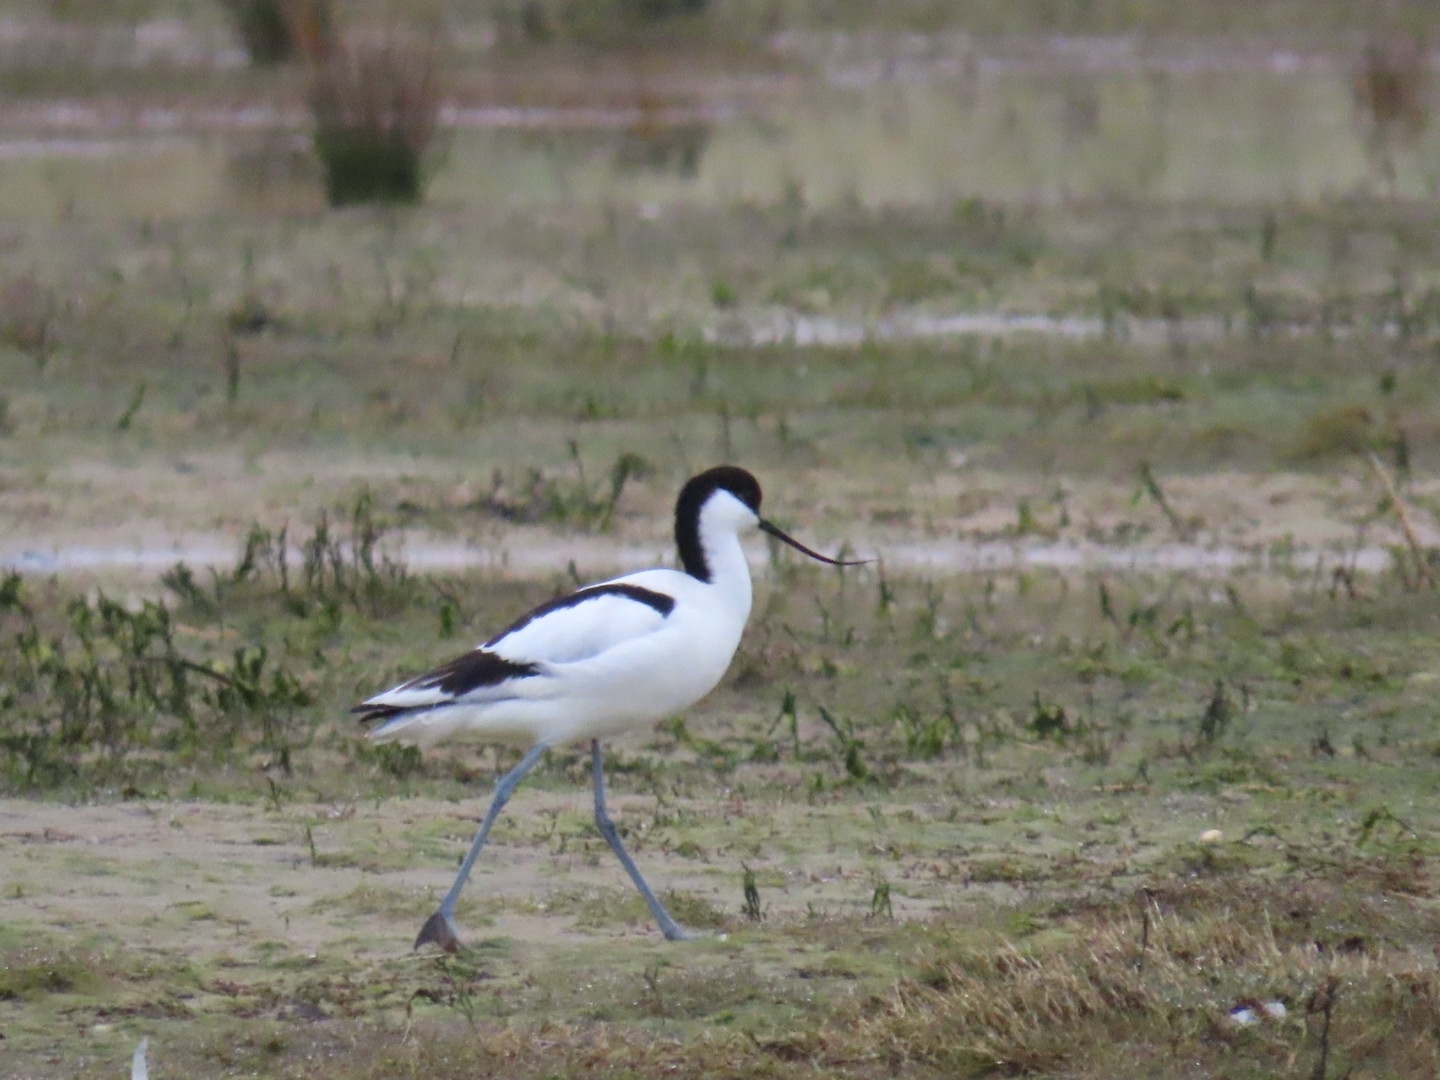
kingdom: Animalia
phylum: Chordata
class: Aves
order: Charadriiformes
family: Recurvirostridae
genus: Recurvirostra
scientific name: Recurvirostra avosetta
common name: Pied avocet
